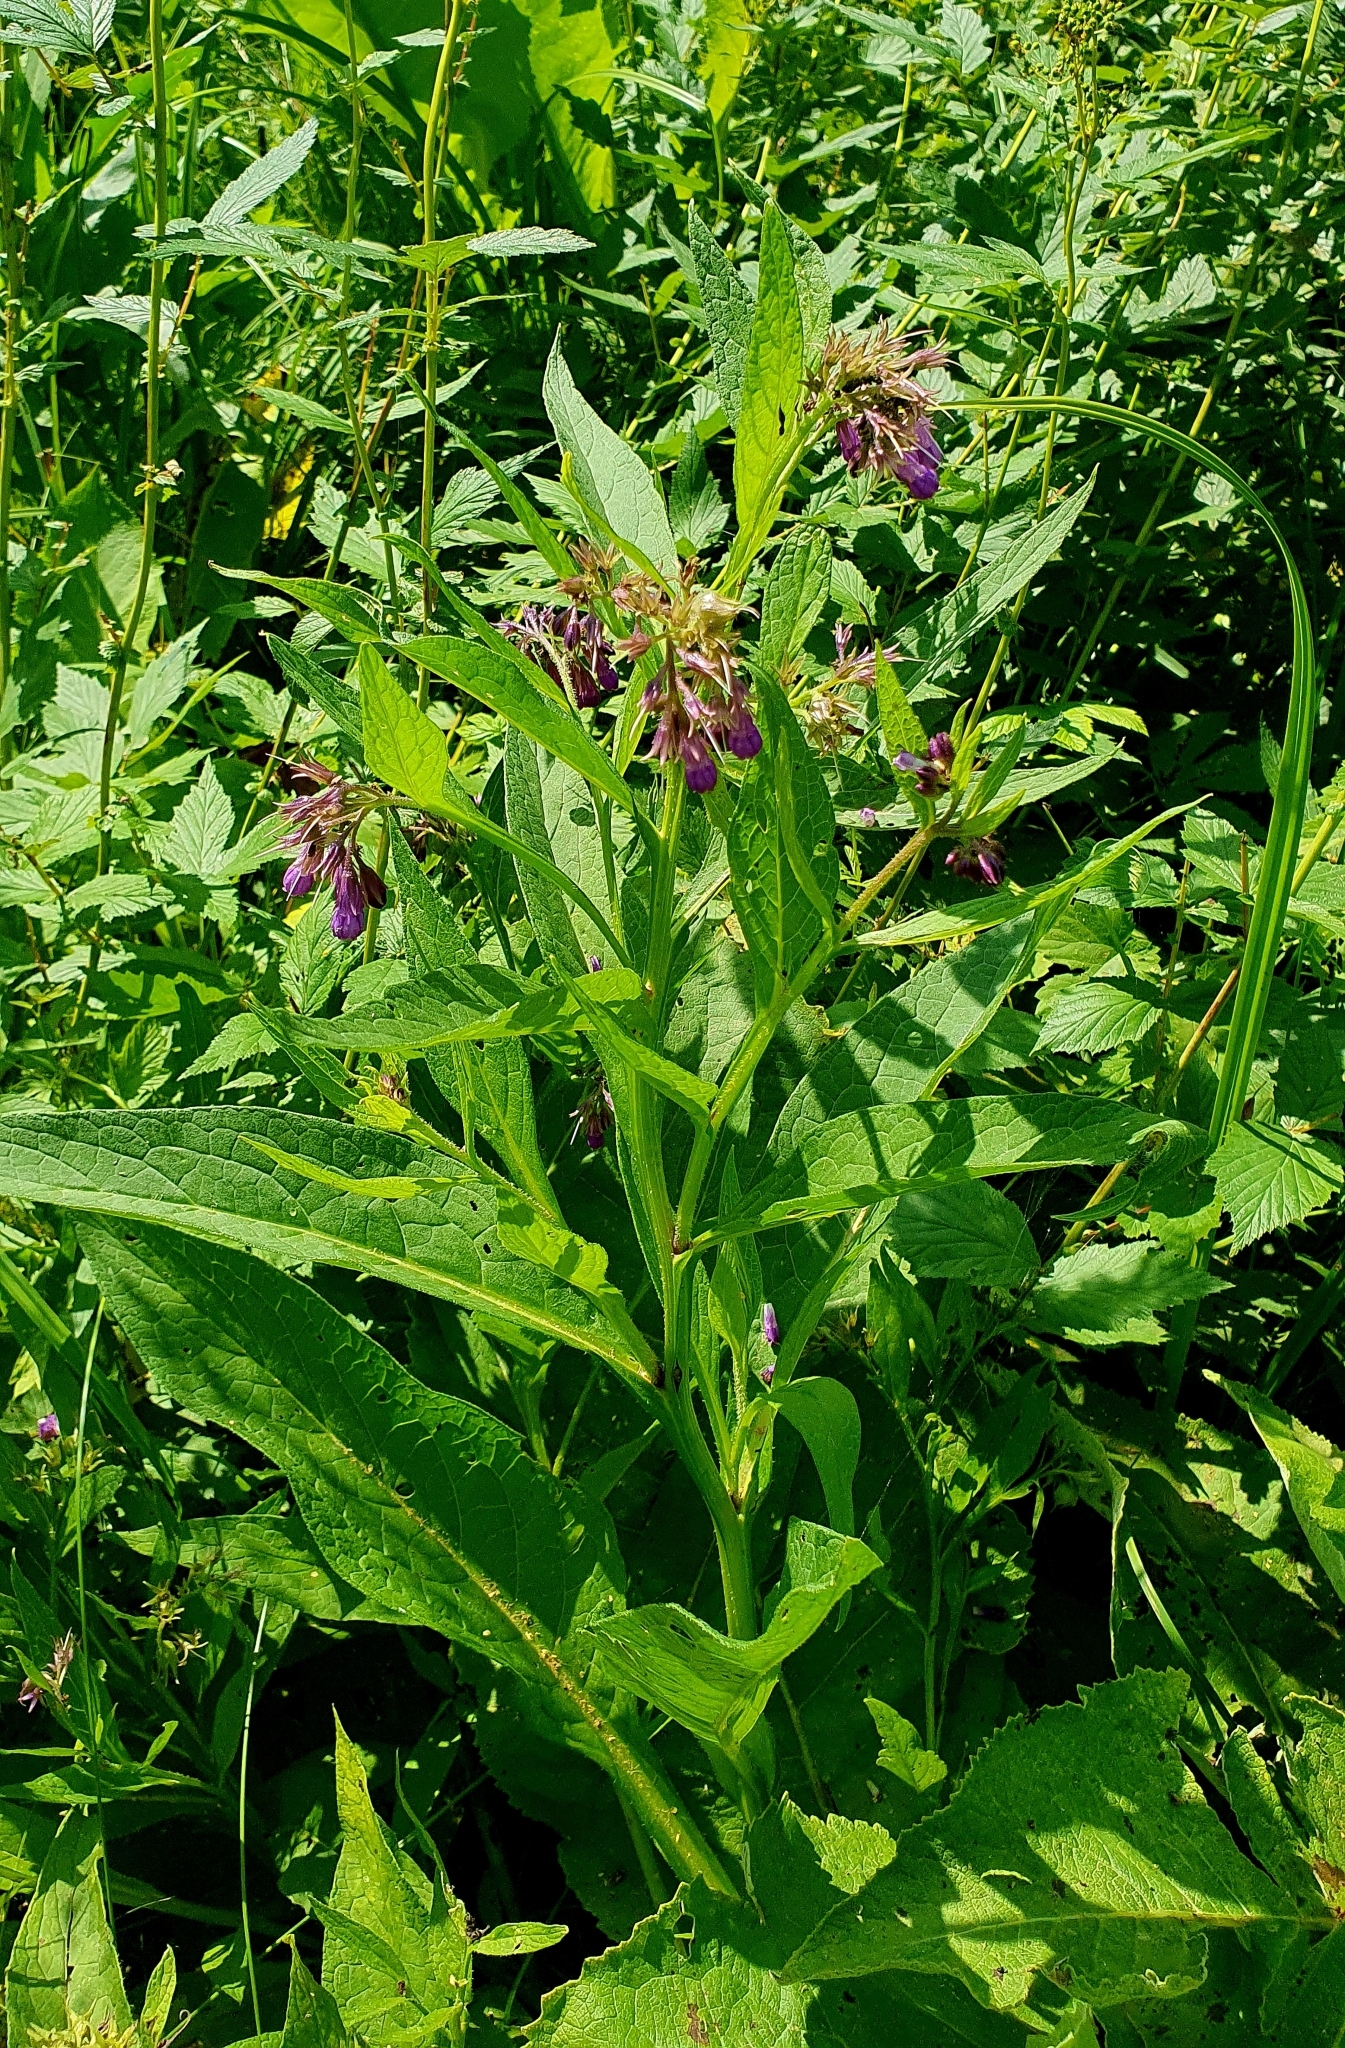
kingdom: Plantae
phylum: Tracheophyta
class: Magnoliopsida
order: Boraginales
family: Boraginaceae
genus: Symphytum
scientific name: Symphytum officinale
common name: Common comfrey
